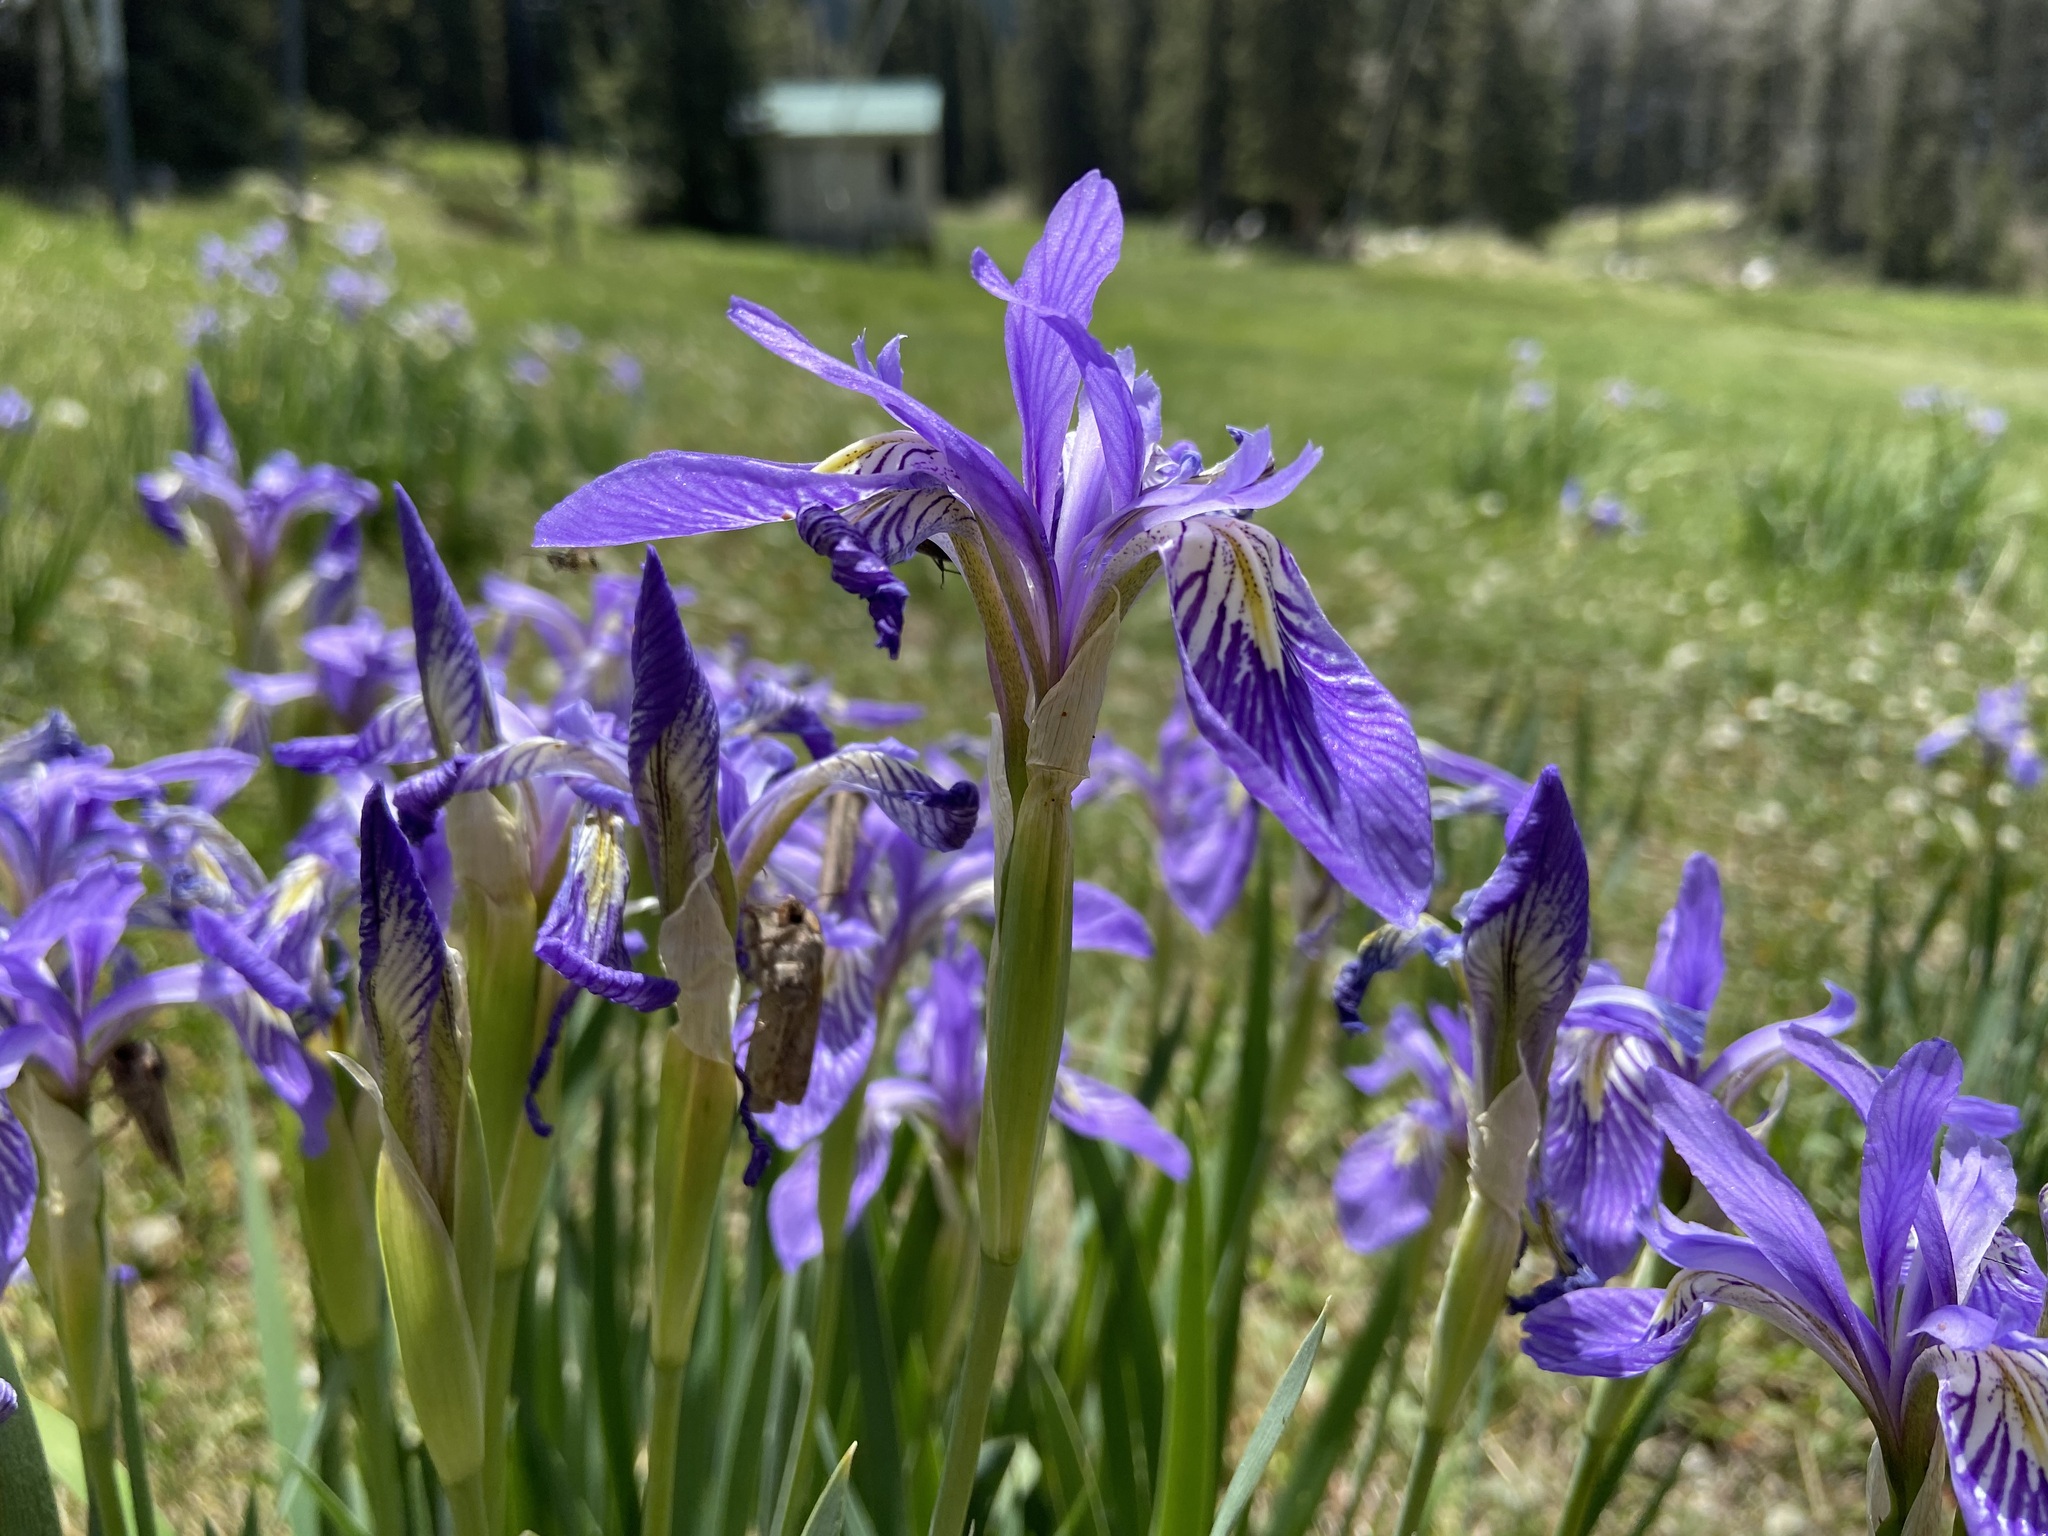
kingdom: Plantae
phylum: Tracheophyta
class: Liliopsida
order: Asparagales
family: Iridaceae
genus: Iris
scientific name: Iris missouriensis
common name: Rocky mountain iris
